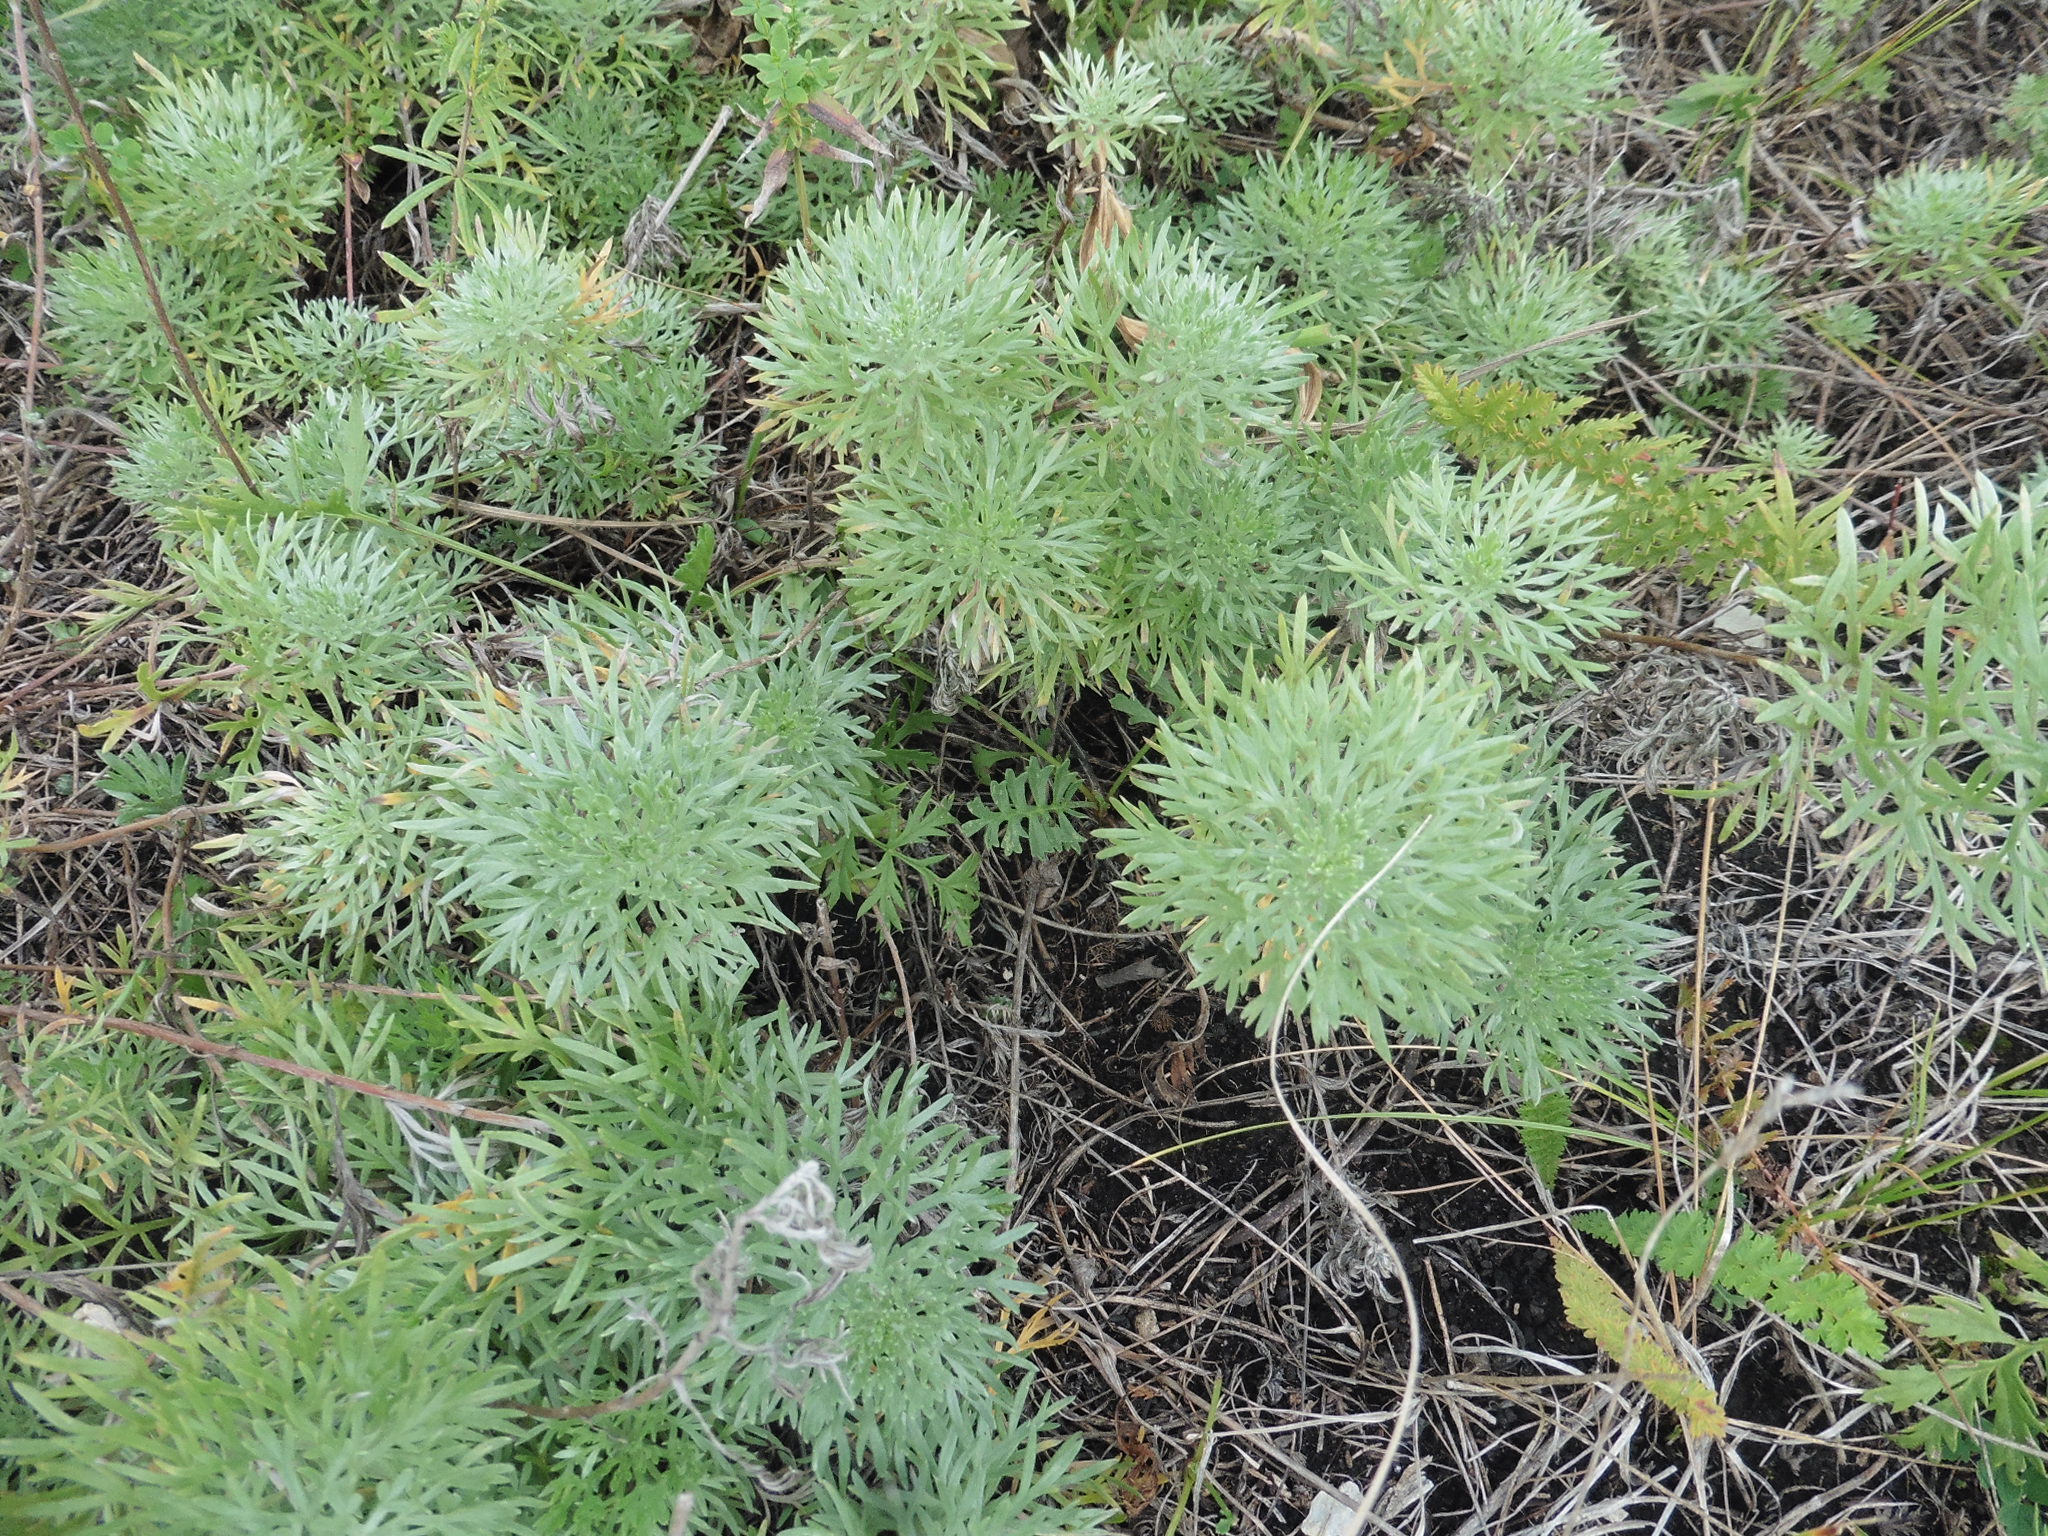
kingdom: Plantae
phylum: Tracheophyta
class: Magnoliopsida
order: Asterales
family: Asteraceae
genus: Artemisia
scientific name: Artemisia sericea
